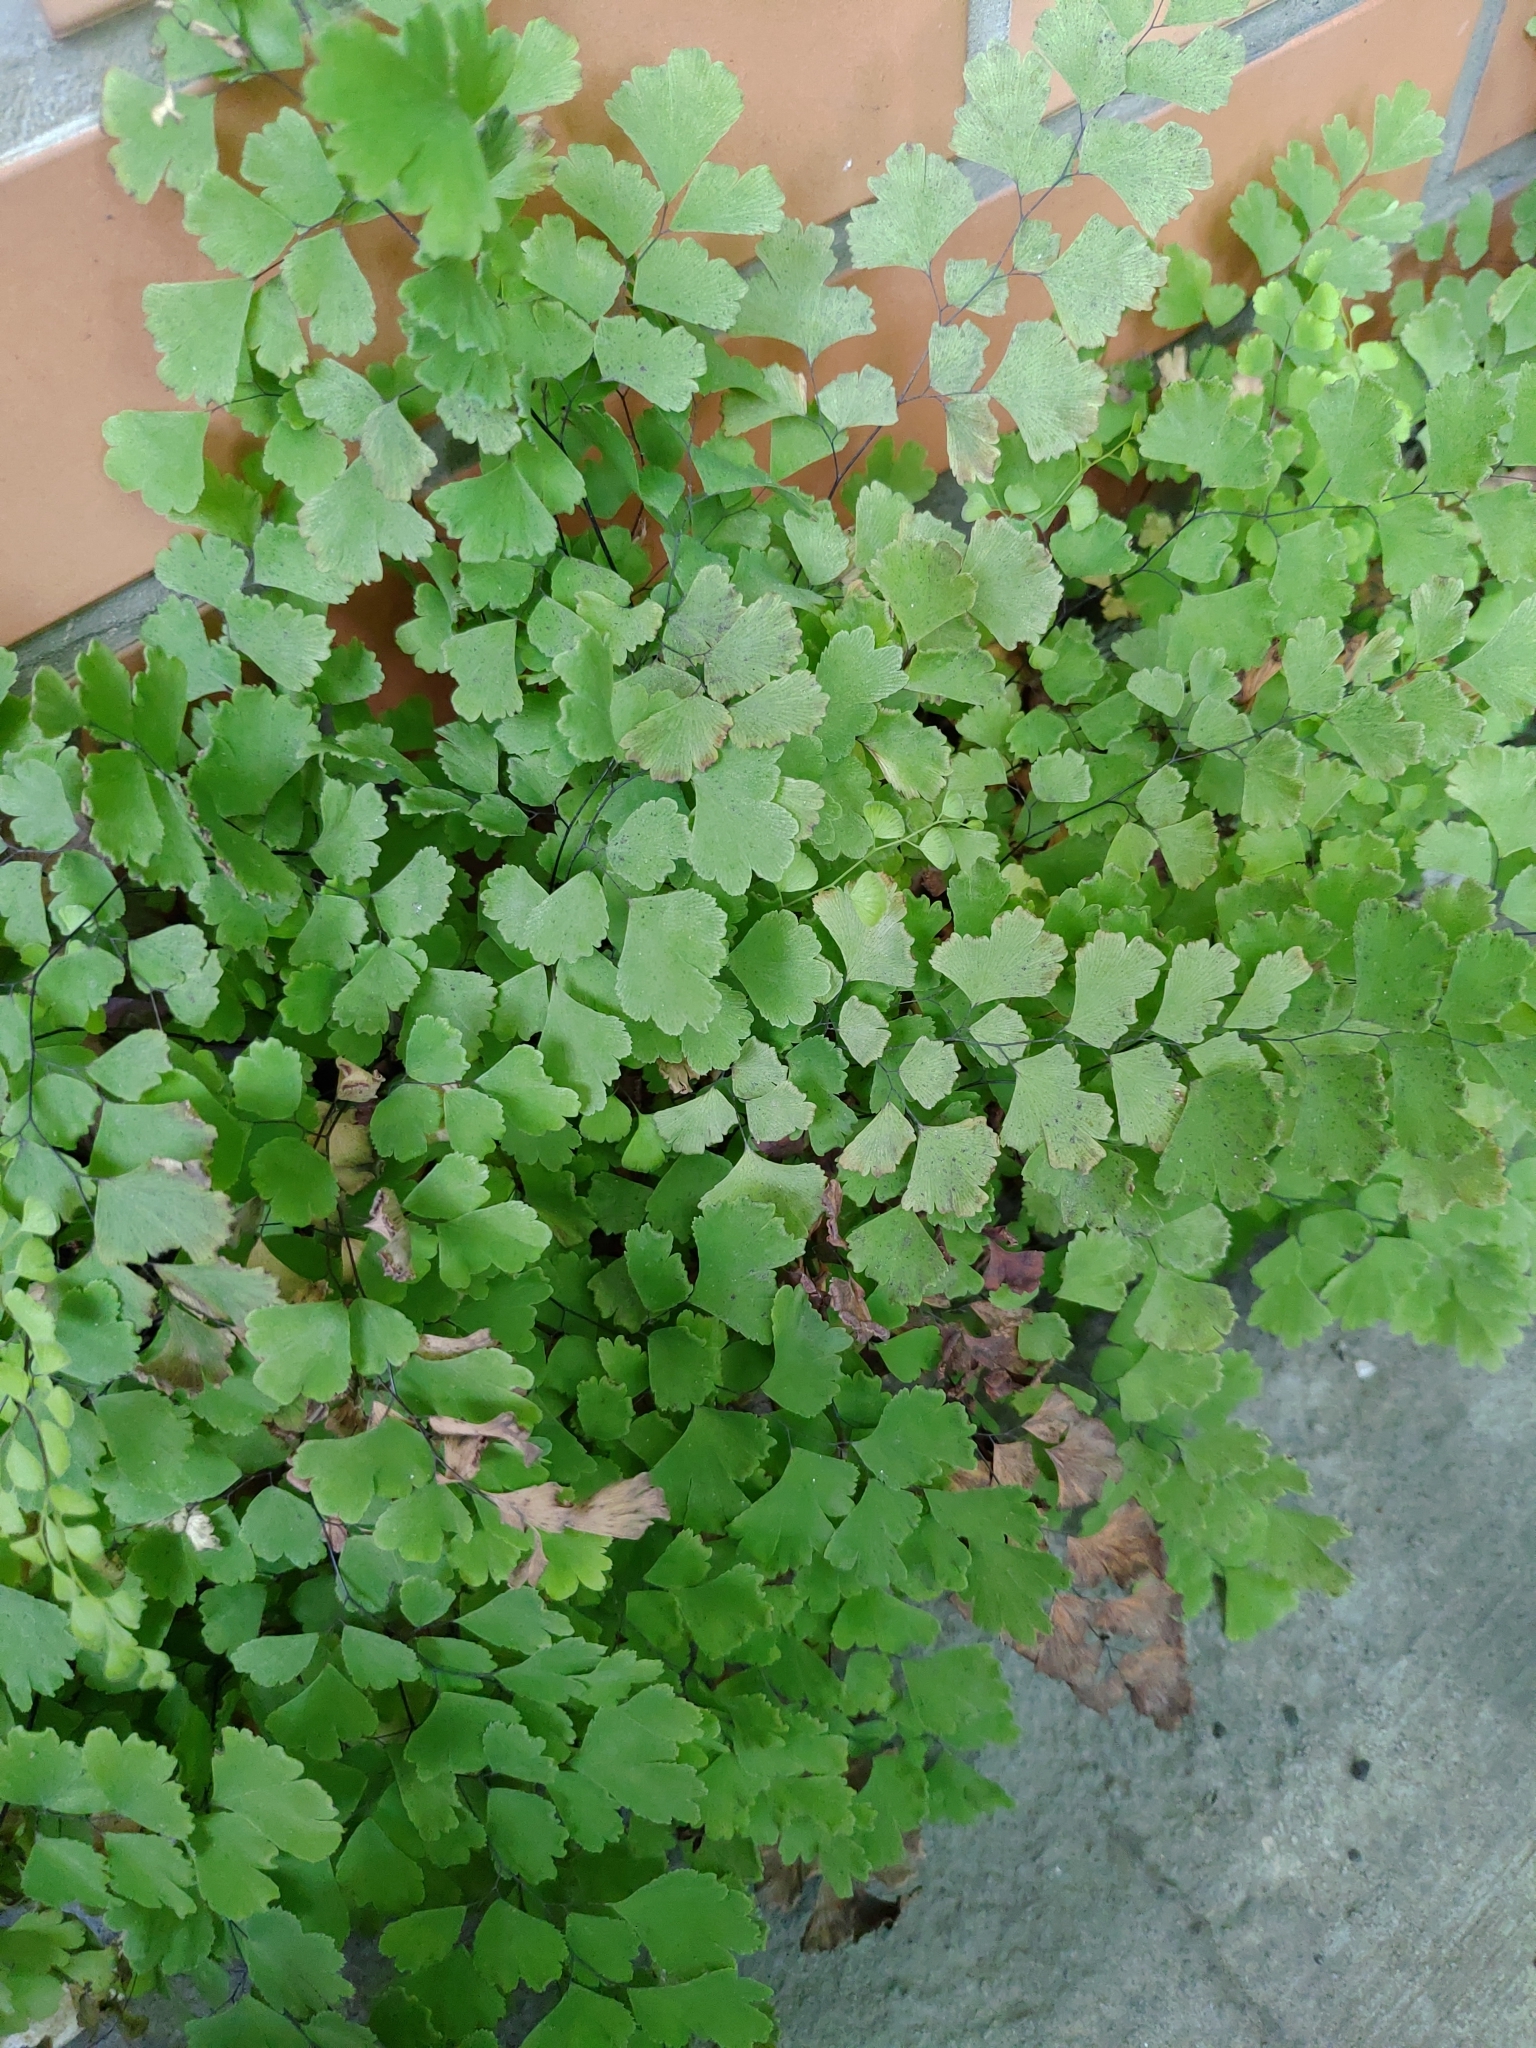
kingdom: Plantae
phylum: Tracheophyta
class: Polypodiopsida
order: Polypodiales
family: Pteridaceae
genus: Adiantum
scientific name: Adiantum capillus-veneris
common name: Maidenhair fern
